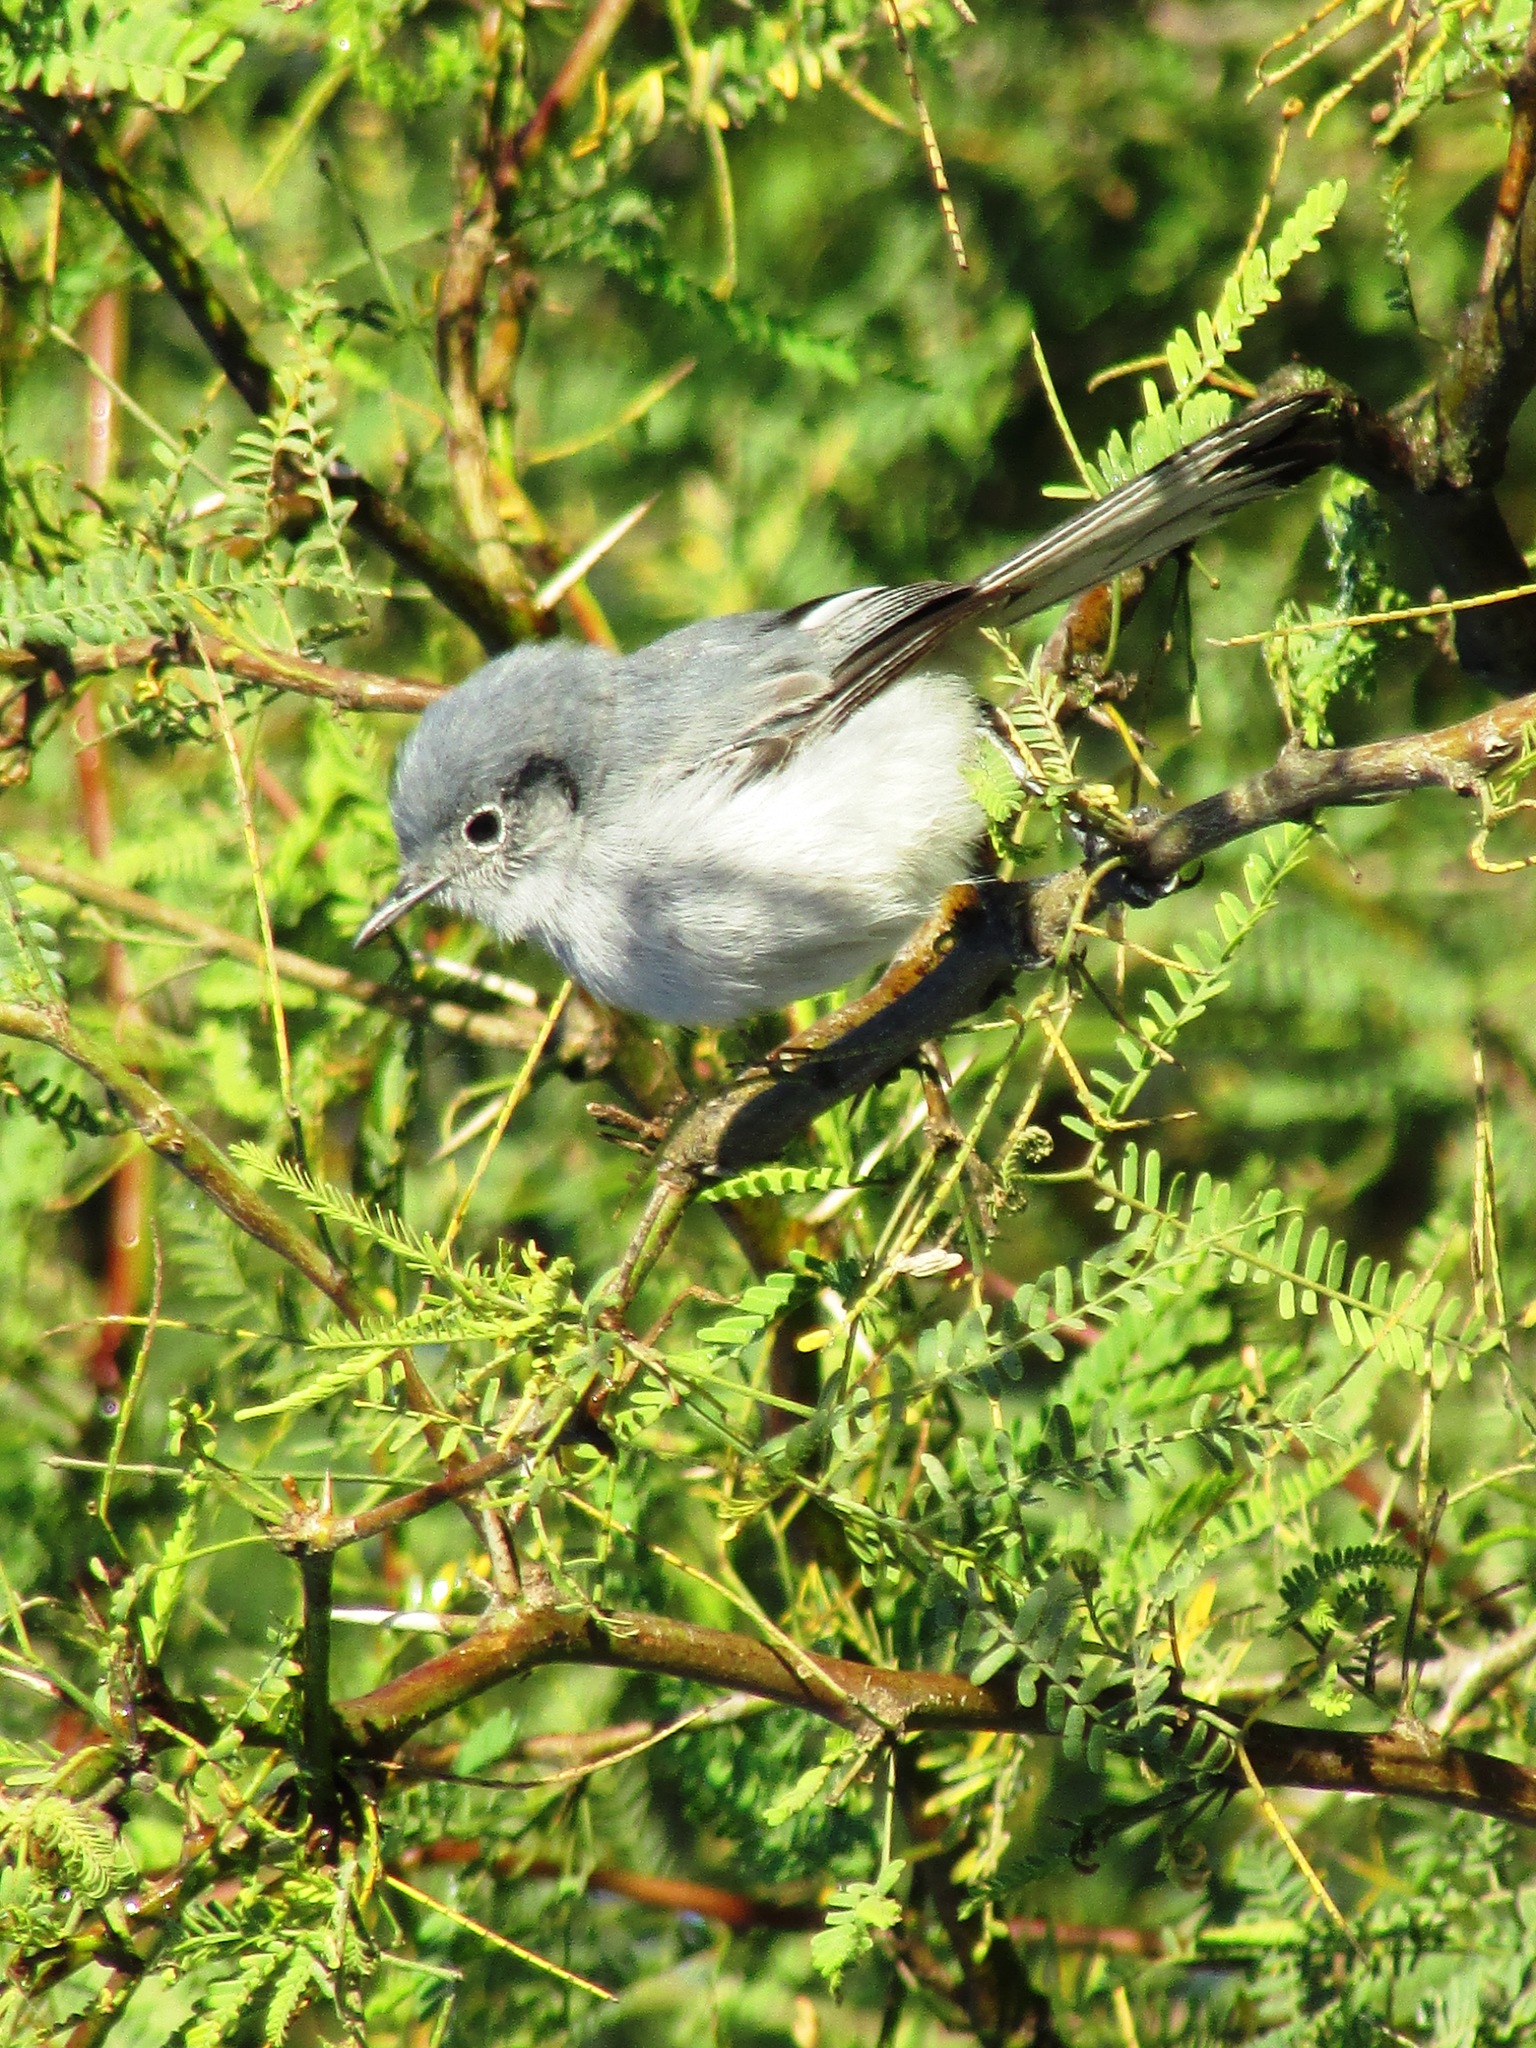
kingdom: Animalia
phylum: Chordata
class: Aves
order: Passeriformes
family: Polioptilidae
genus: Polioptila
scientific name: Polioptila dumicola
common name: Masked gnatcatcher
